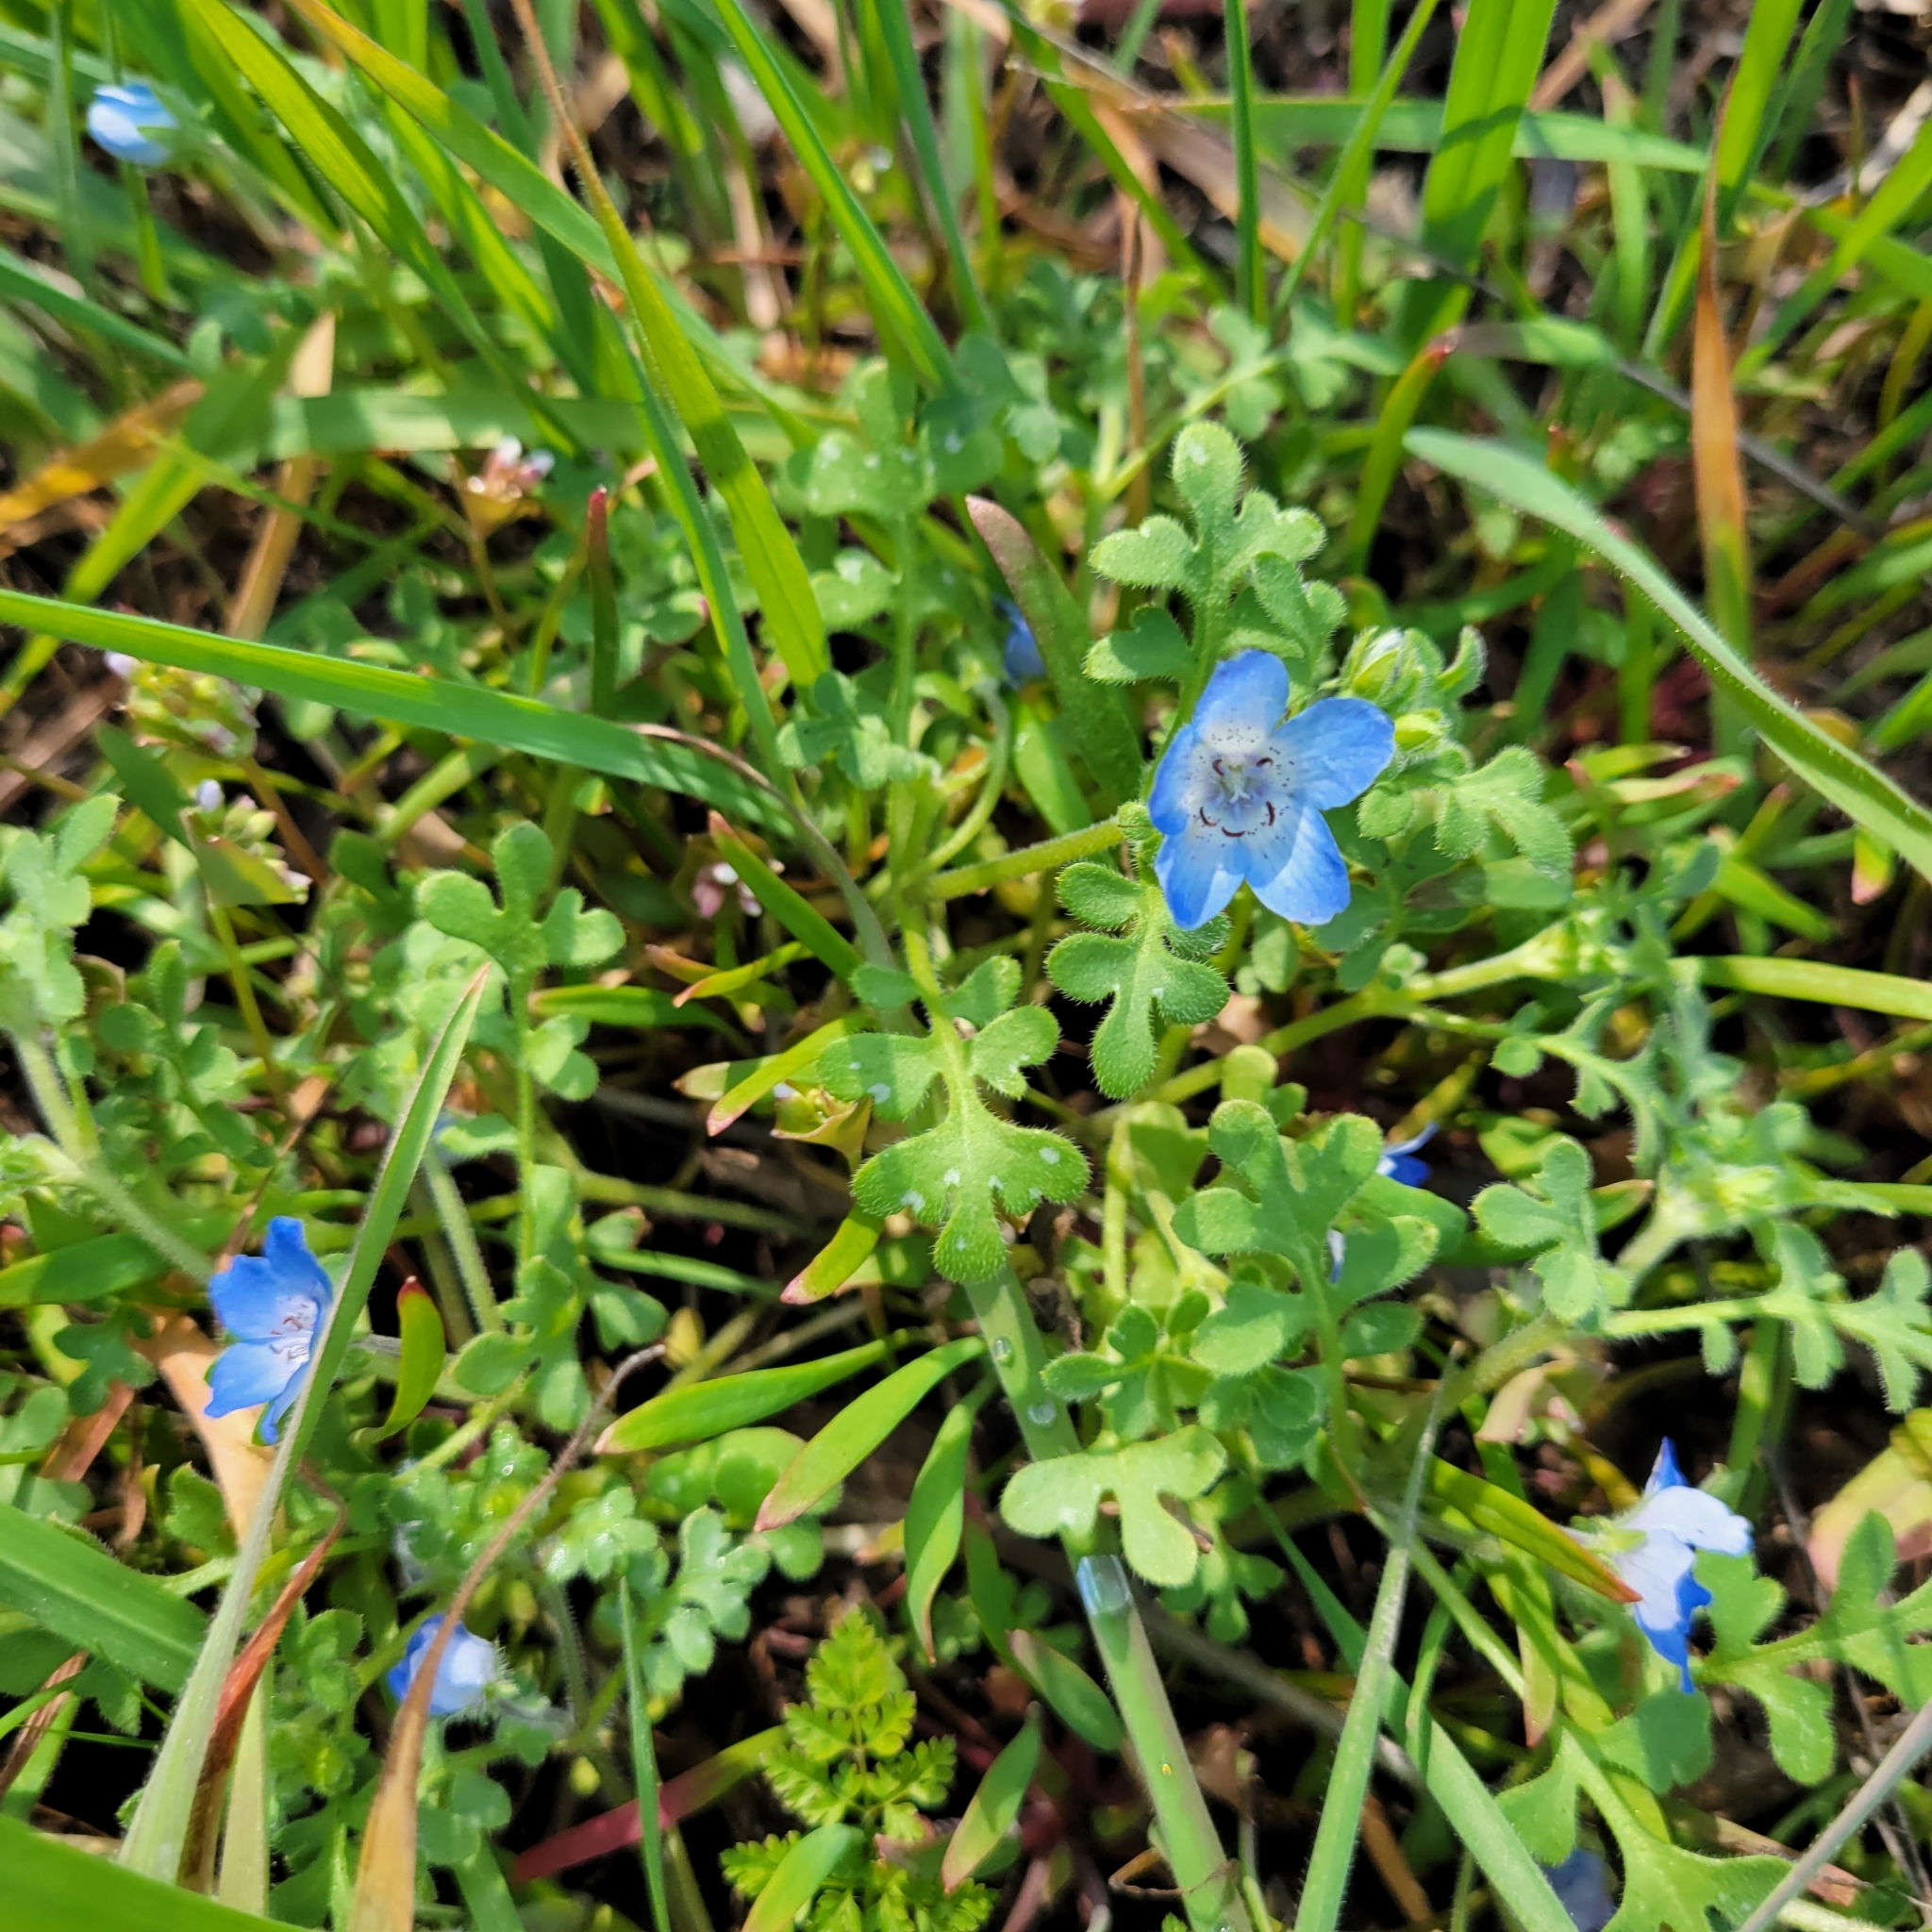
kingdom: Plantae
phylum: Tracheophyta
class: Magnoliopsida
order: Boraginales
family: Hydrophyllaceae
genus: Nemophila
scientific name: Nemophila menziesii
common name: Baby's-blue-eyes
